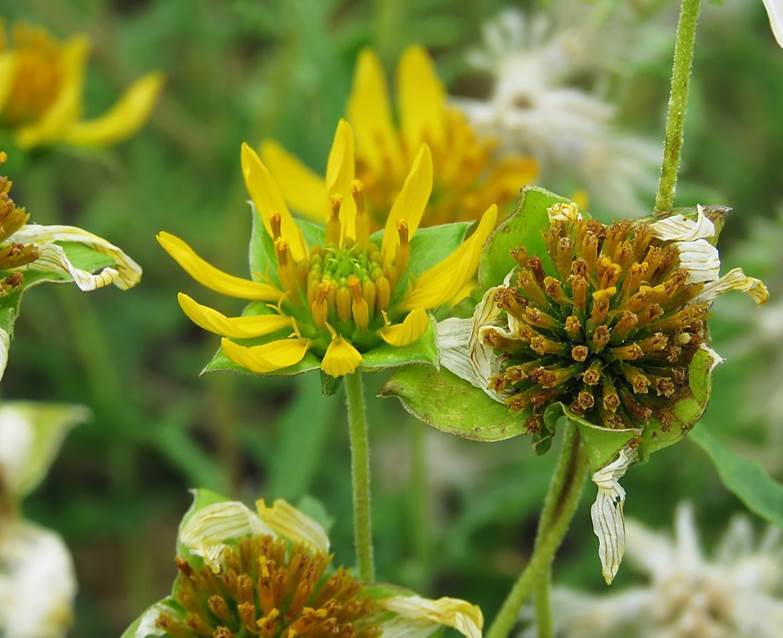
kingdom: Plantae
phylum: Tracheophyta
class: Magnoliopsida
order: Asterales
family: Asteraceae
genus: Tetragonotheca
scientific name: Tetragonotheca texana
